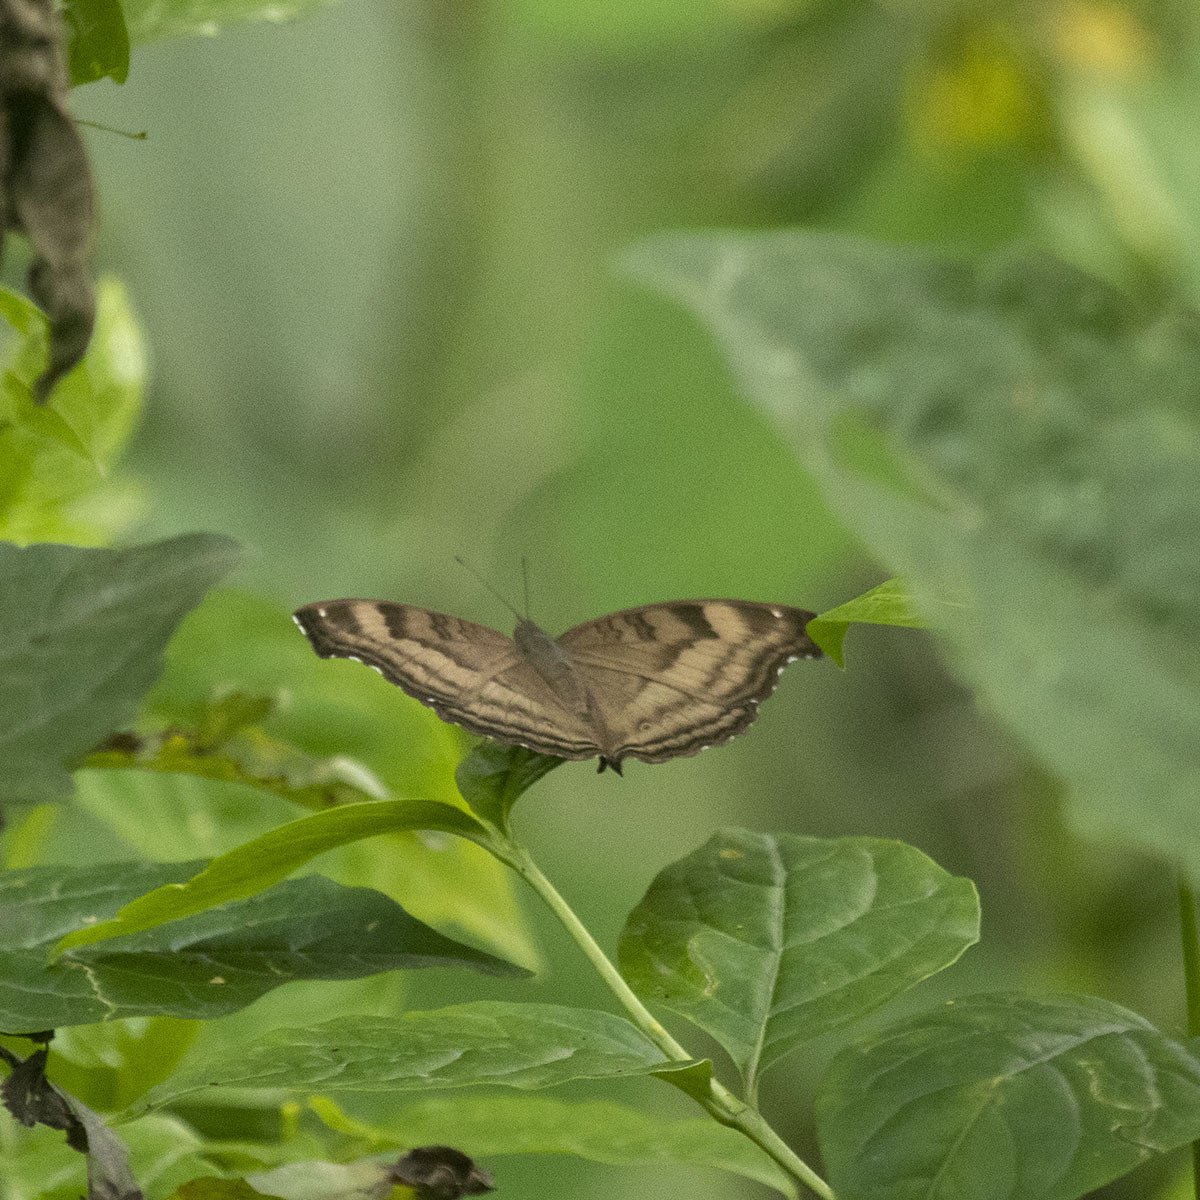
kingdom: Animalia
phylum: Arthropoda
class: Insecta
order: Lepidoptera
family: Nymphalidae
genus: Junonia
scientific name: Junonia iphita
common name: Chocolate pansy
